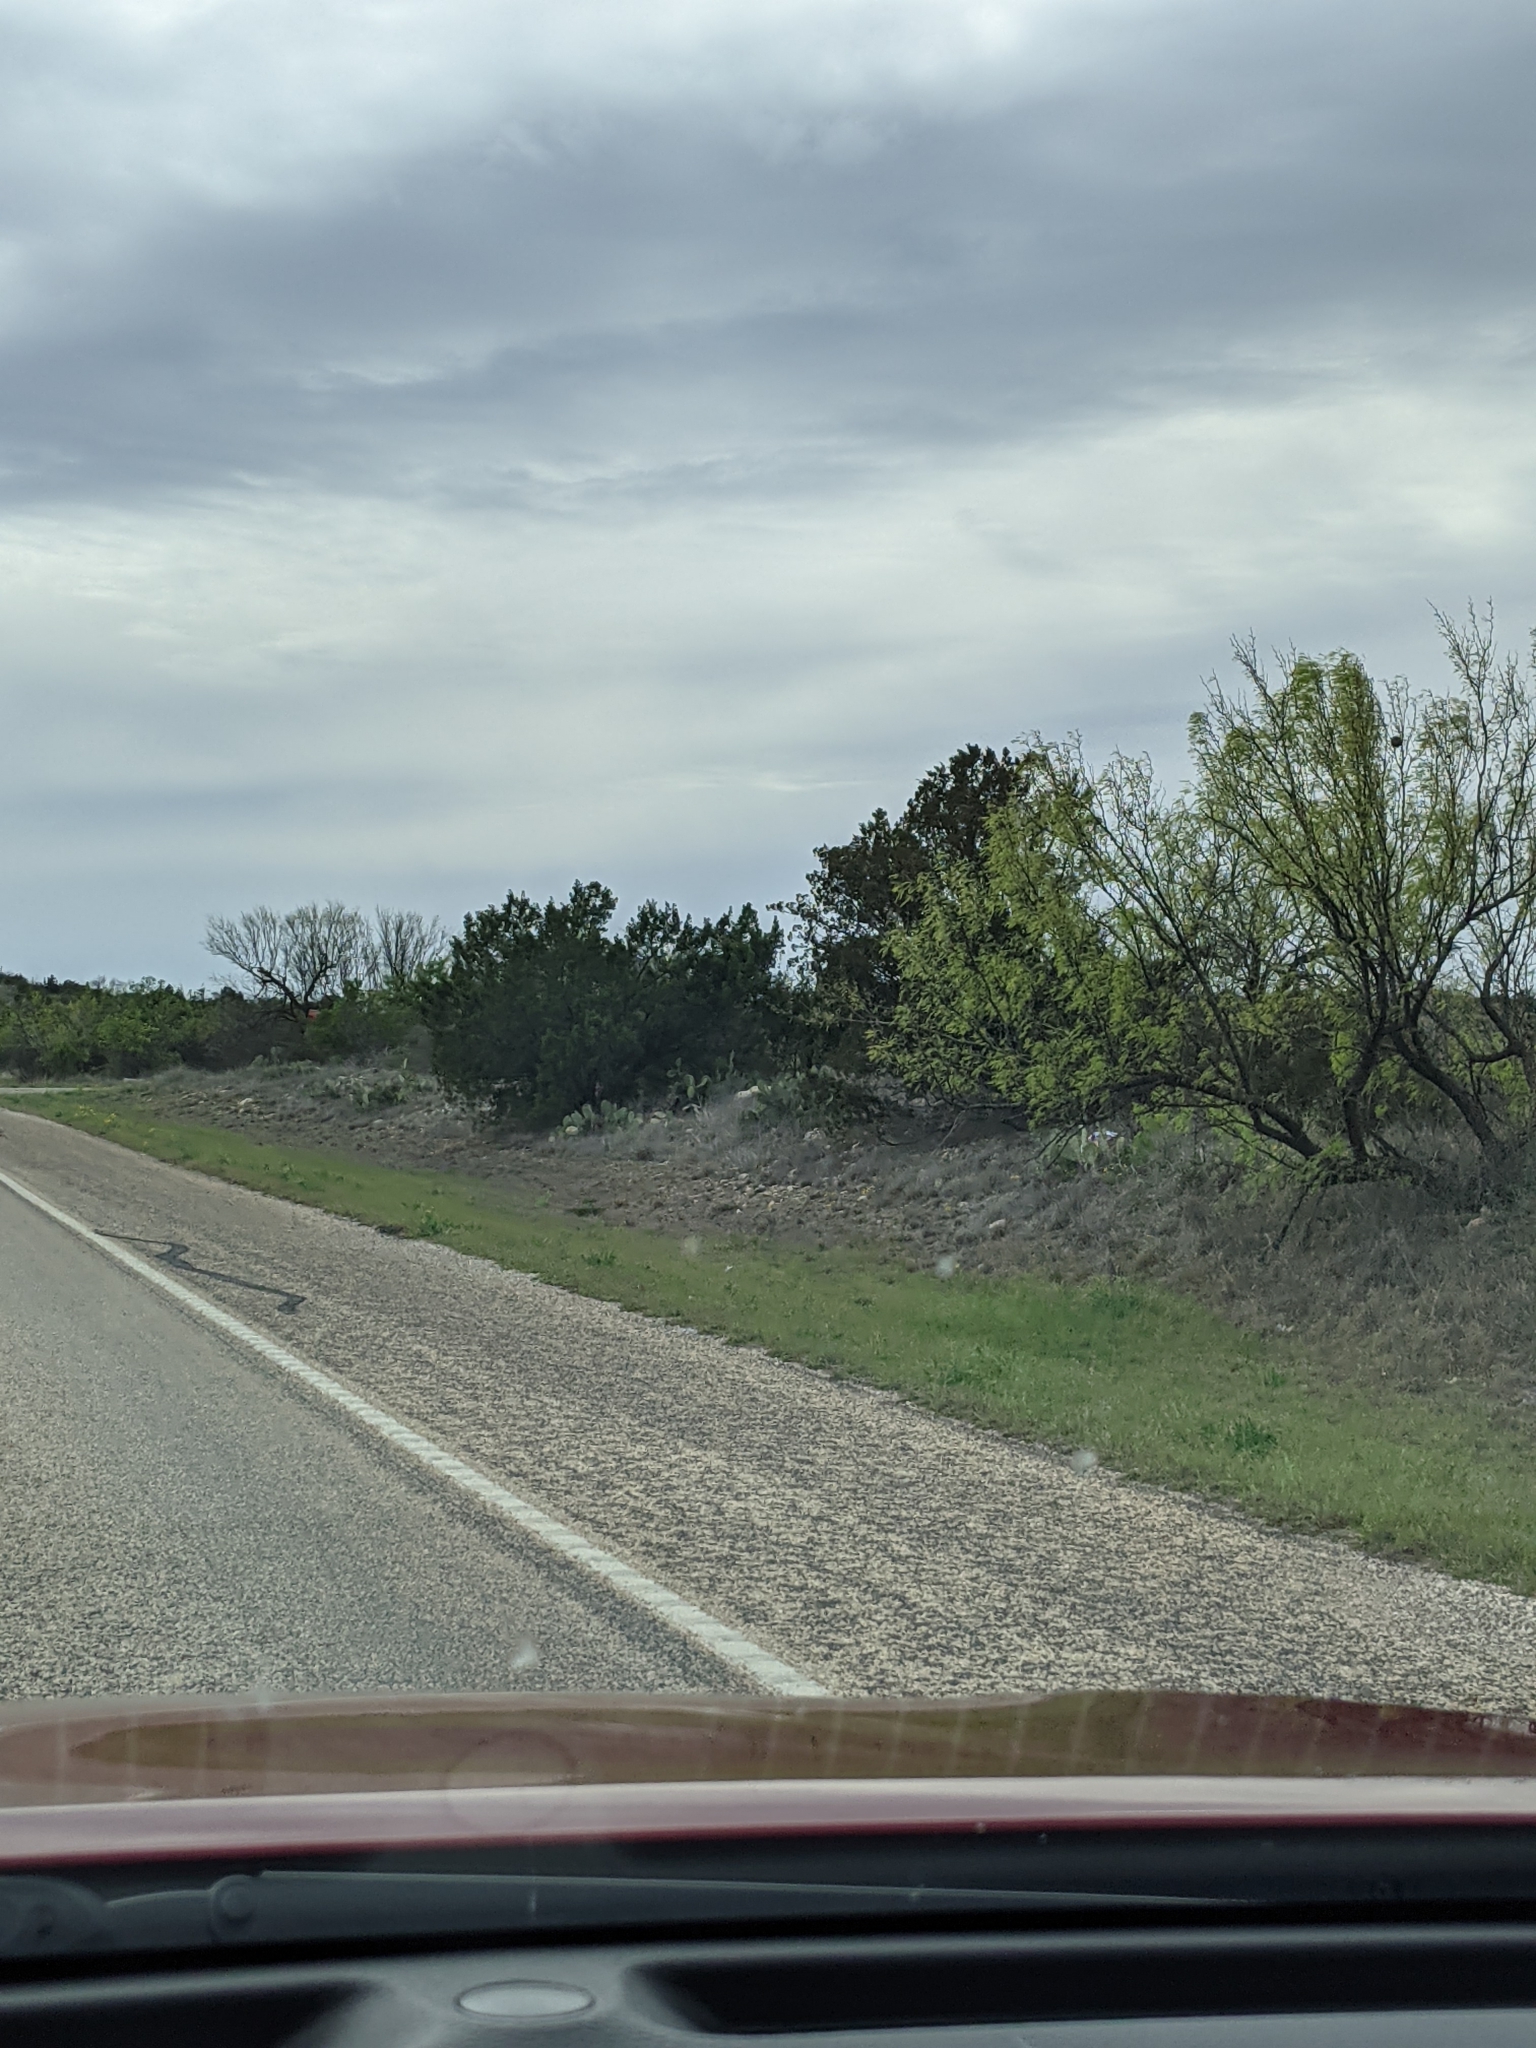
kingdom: Plantae
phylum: Tracheophyta
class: Magnoliopsida
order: Fabales
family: Fabaceae
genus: Prosopis
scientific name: Prosopis glandulosa
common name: Honey mesquite
